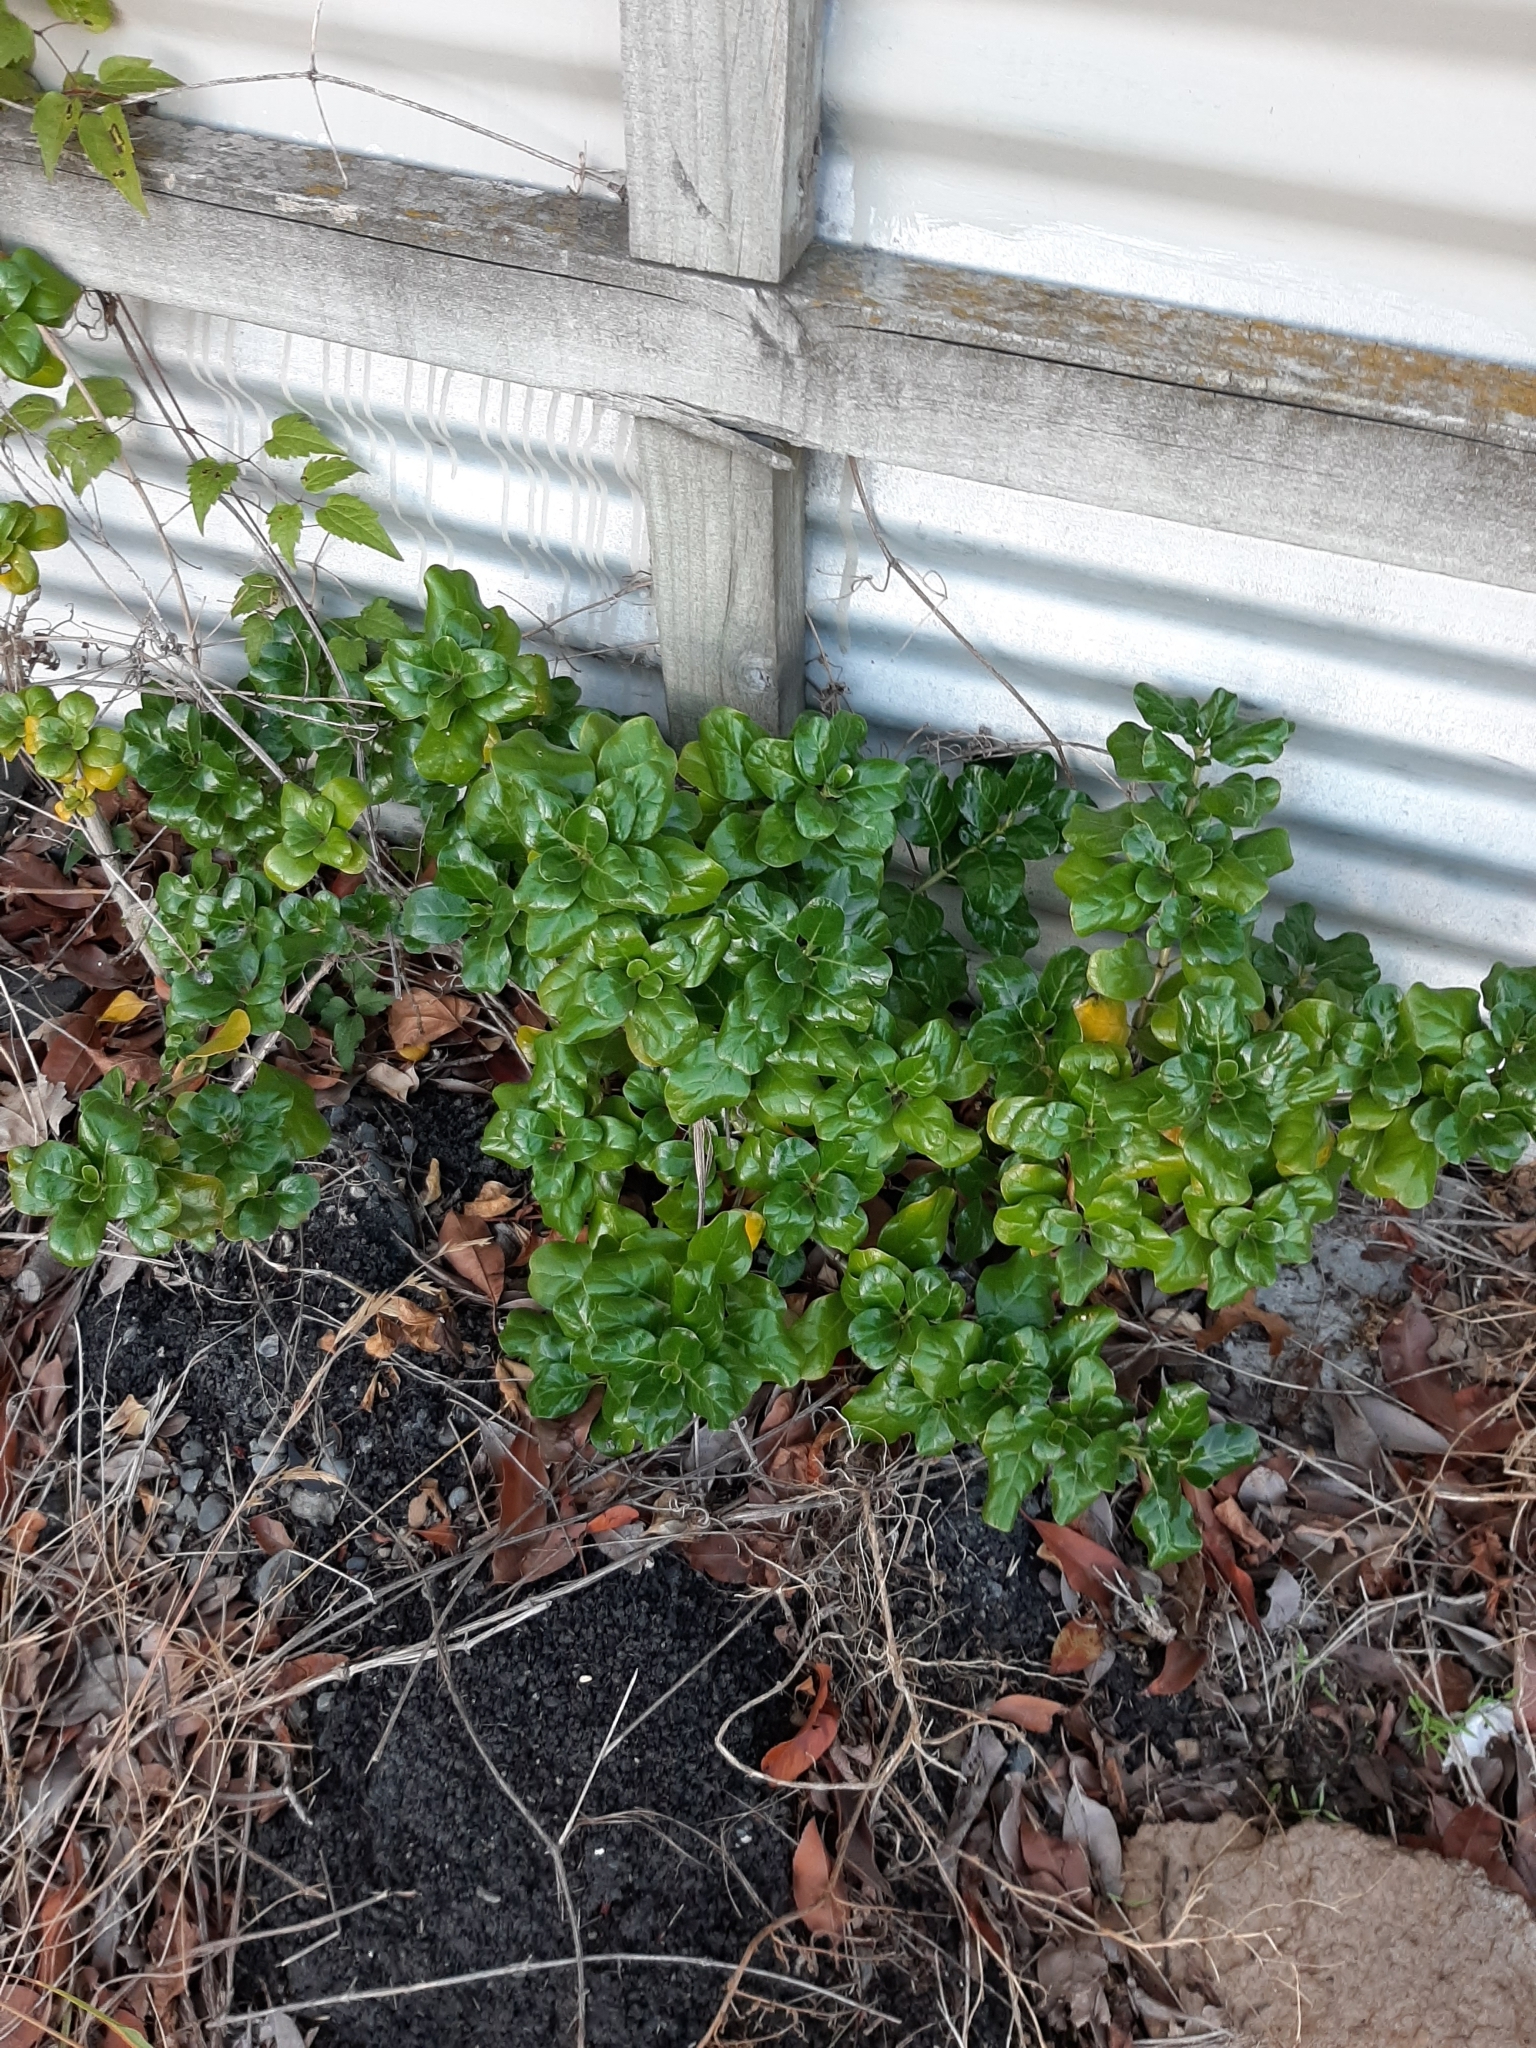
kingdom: Plantae
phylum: Tracheophyta
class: Magnoliopsida
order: Gentianales
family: Rubiaceae
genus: Coprosma
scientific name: Coprosma repens
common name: Tree bedstraw
